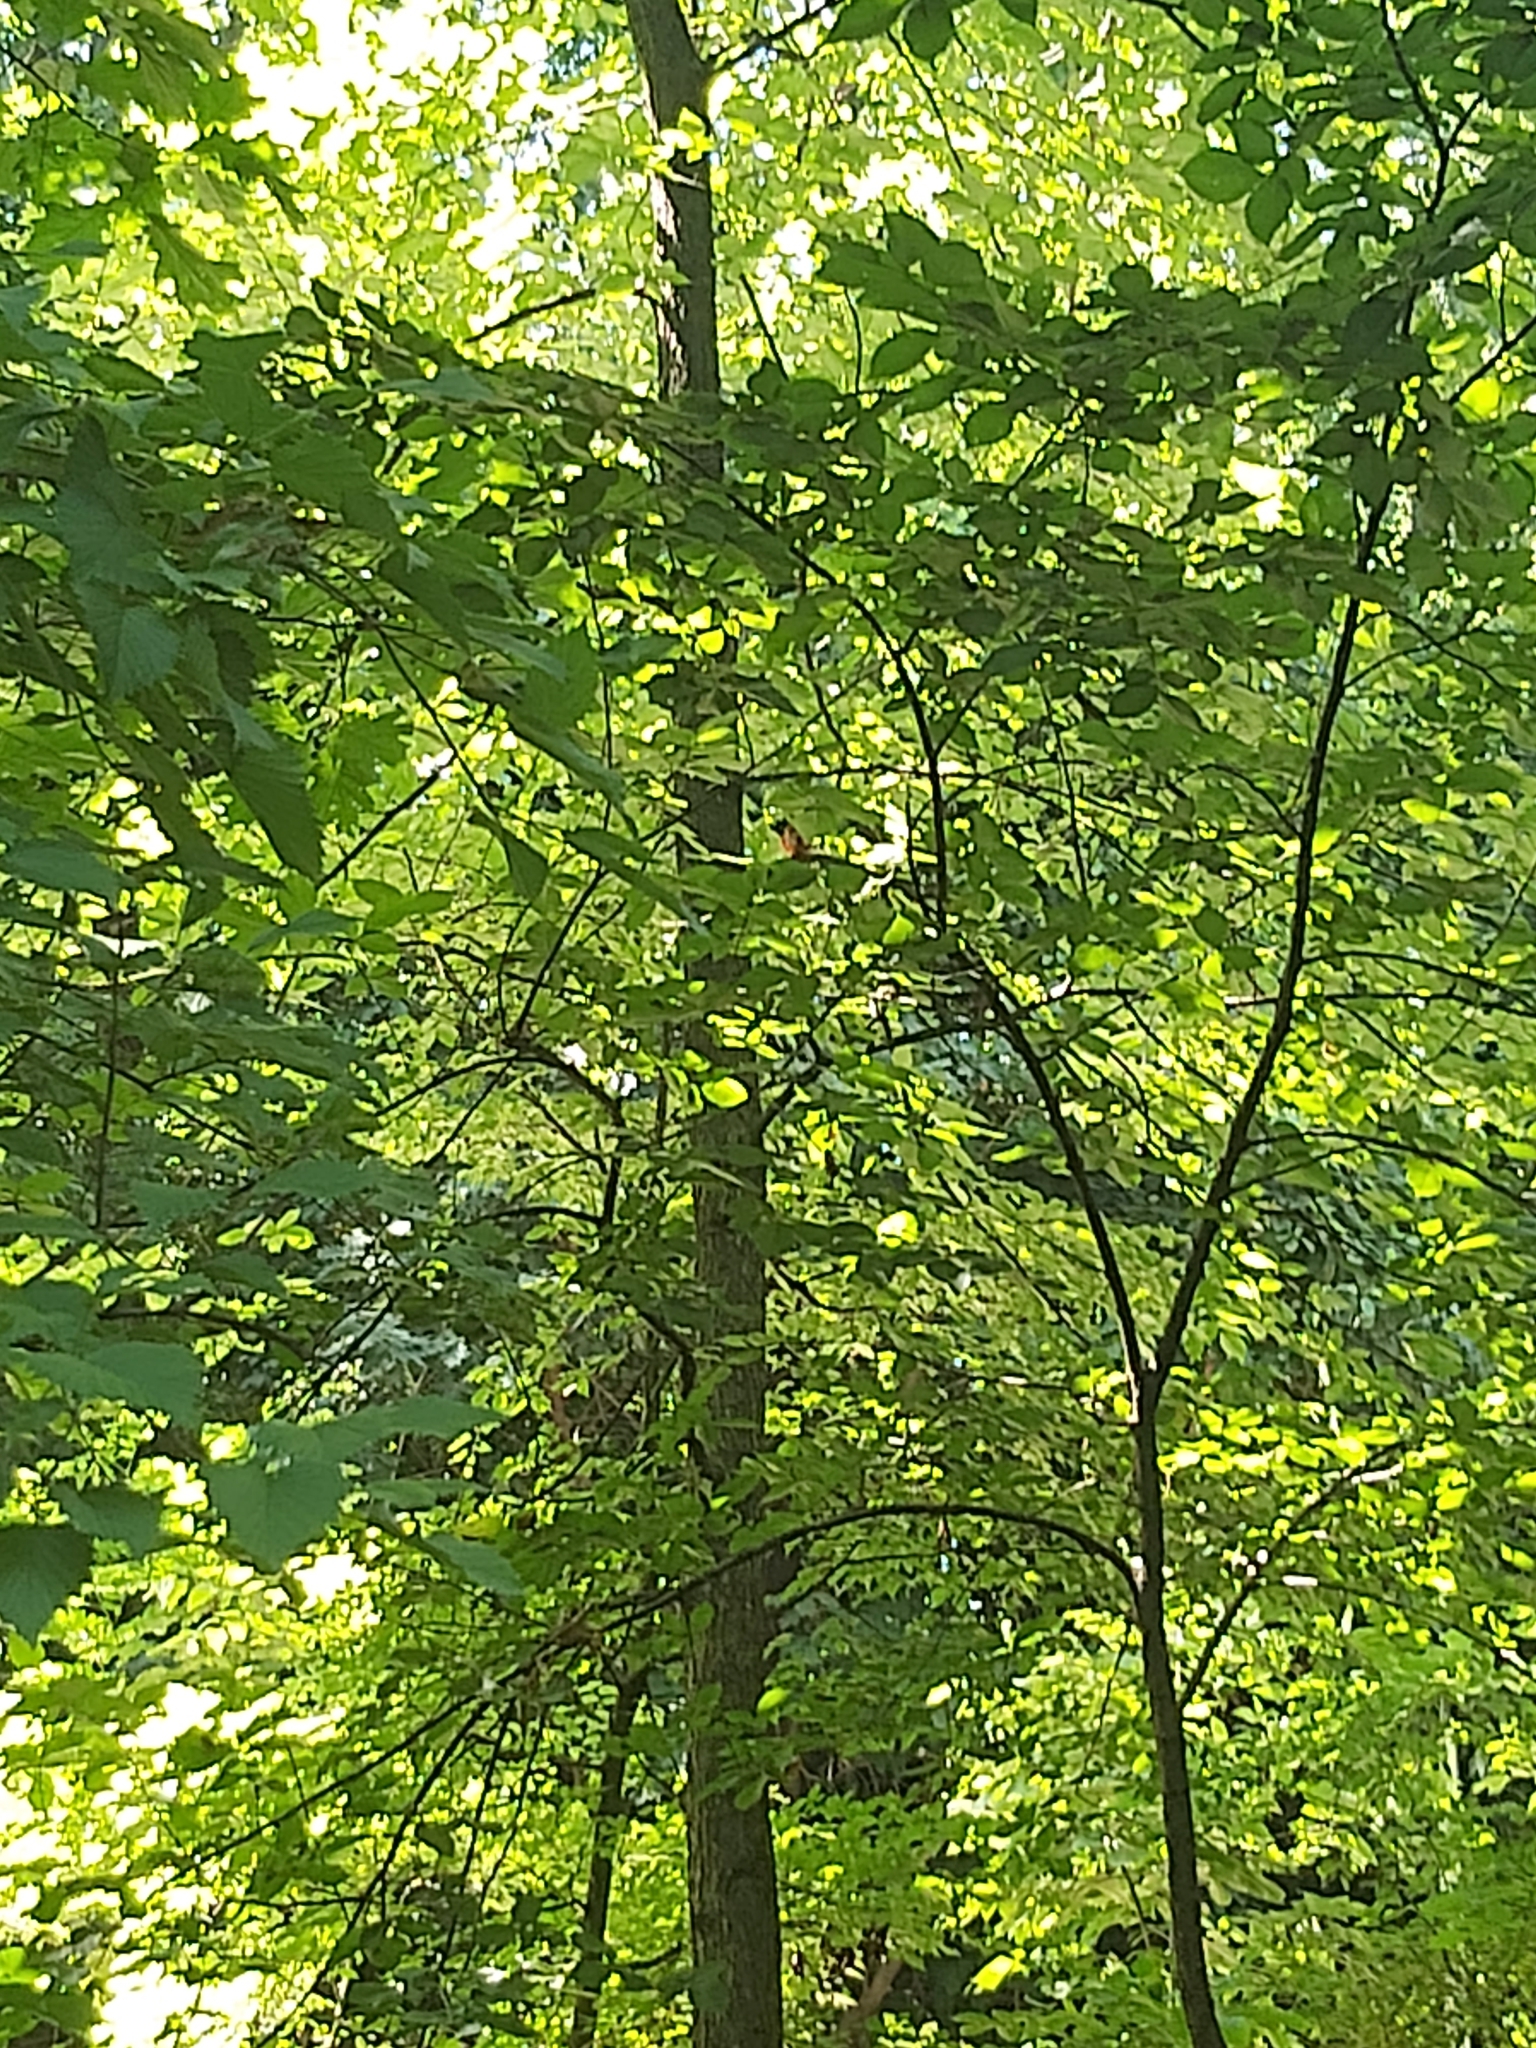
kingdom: Animalia
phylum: Chordata
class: Aves
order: Passeriformes
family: Cardinalidae
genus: Cardinalis
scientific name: Cardinalis cardinalis
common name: Northern cardinal
